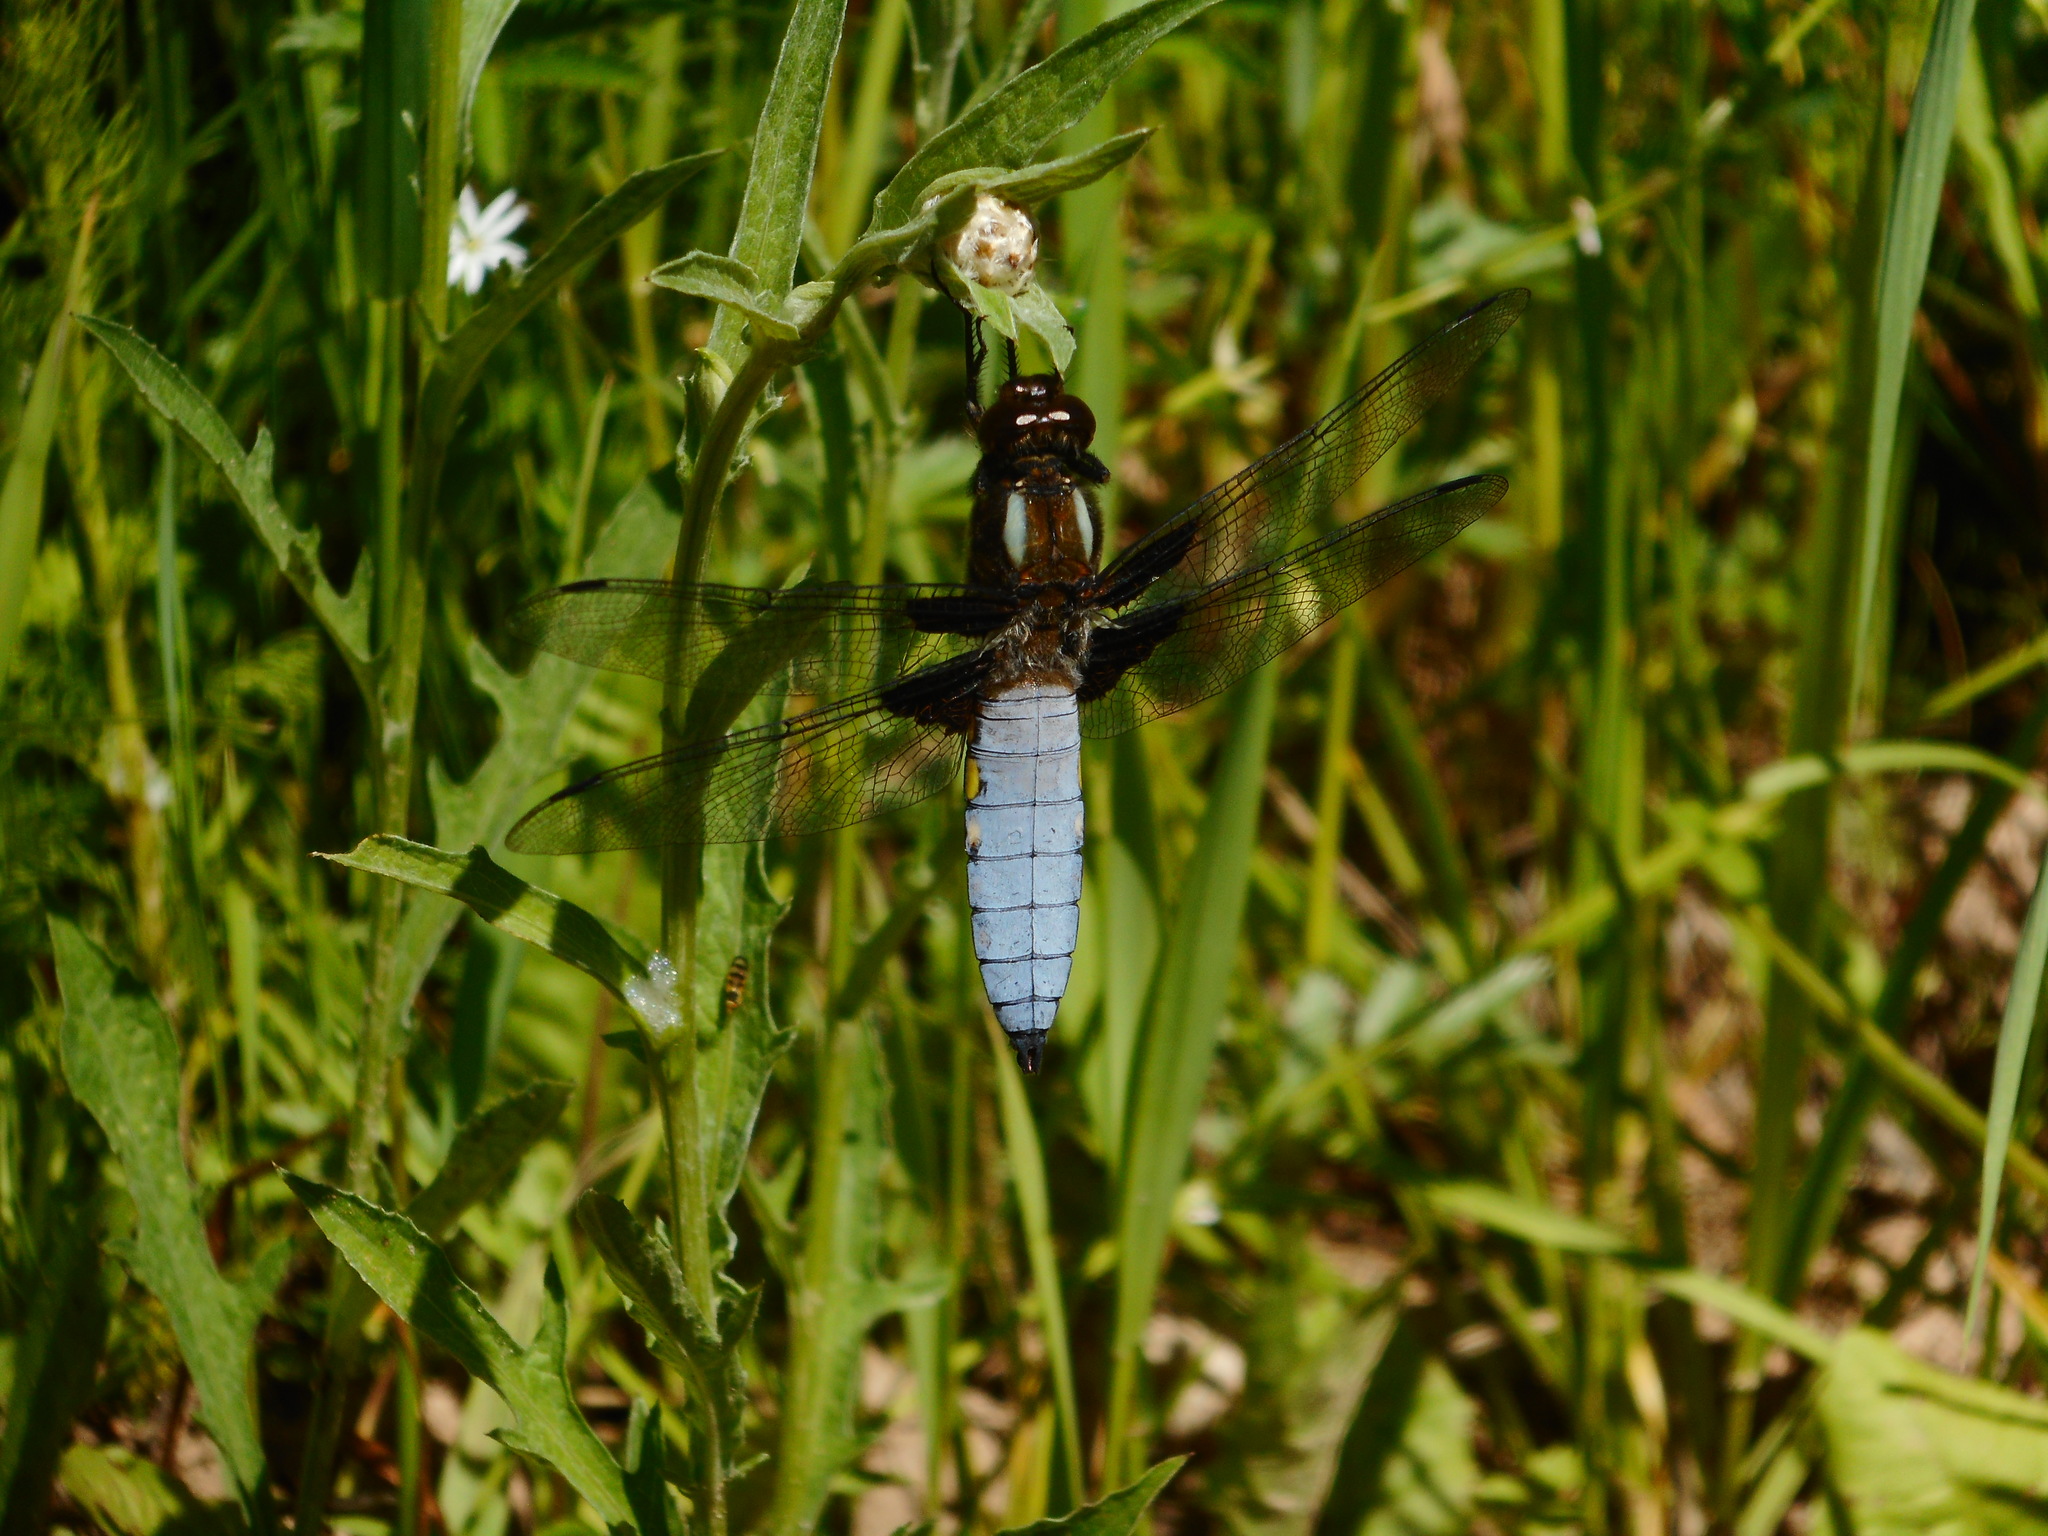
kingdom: Animalia
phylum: Arthropoda
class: Insecta
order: Odonata
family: Libellulidae
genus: Libellula
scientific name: Libellula depressa
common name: Broad-bodied chaser
